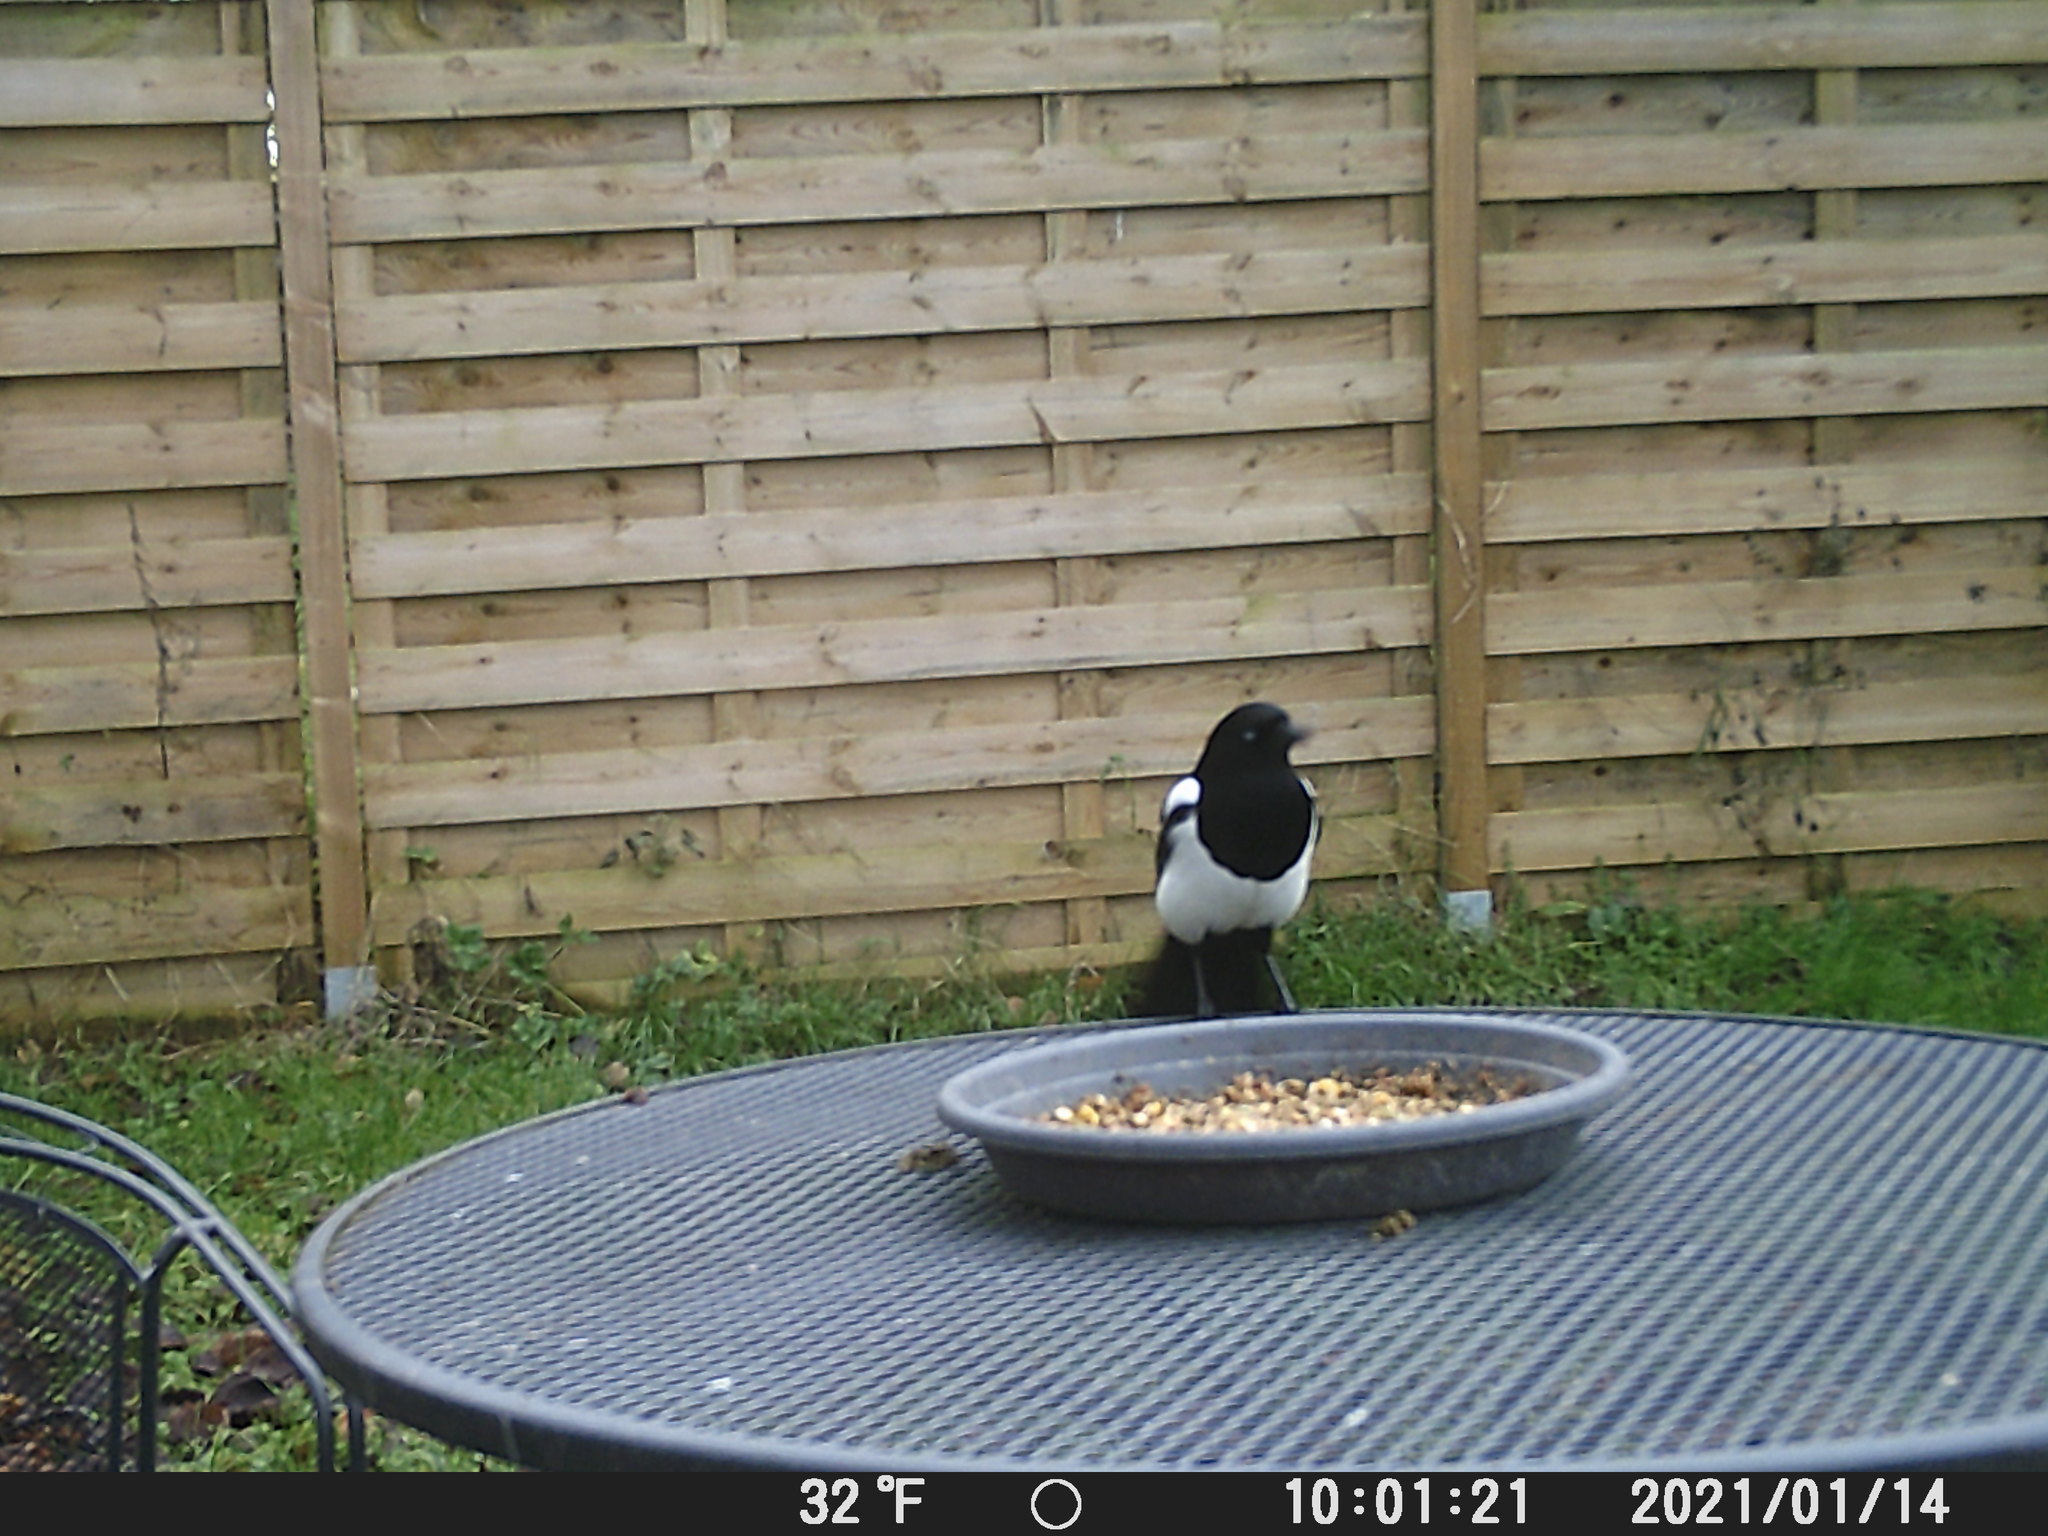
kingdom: Animalia
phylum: Chordata
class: Aves
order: Passeriformes
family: Corvidae
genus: Pica
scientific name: Pica pica
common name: Eurasian magpie
